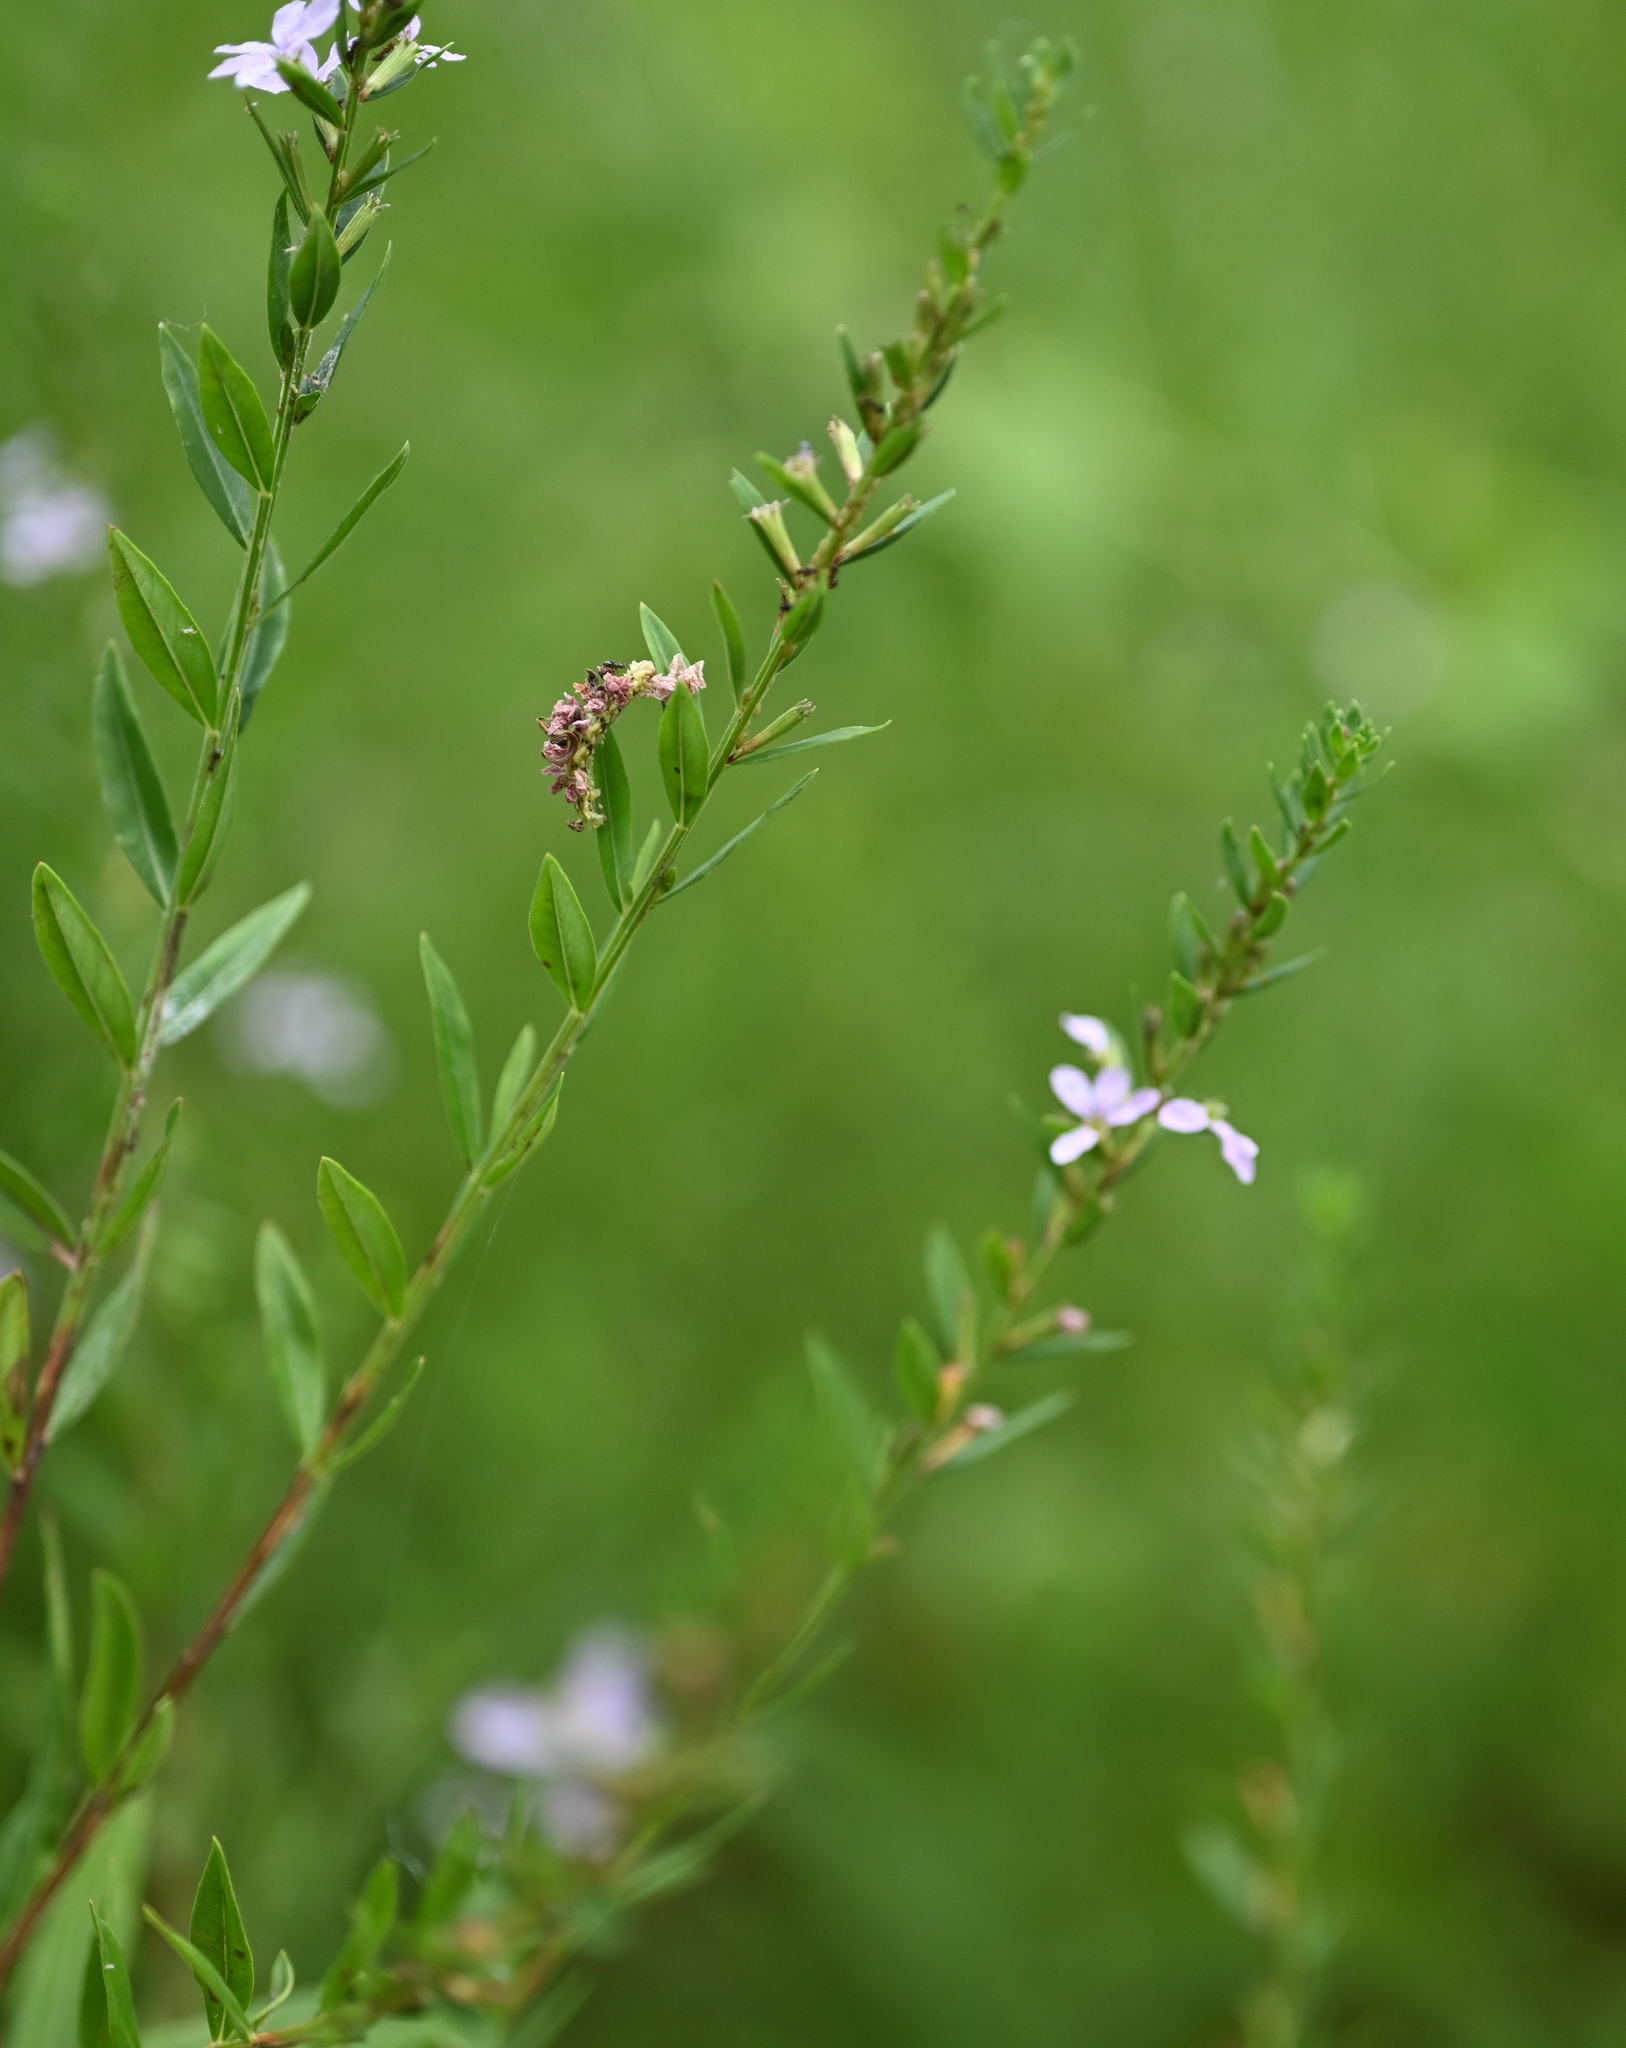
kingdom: Animalia
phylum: Arthropoda
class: Insecta
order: Lepidoptera
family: Geometridae
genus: Synchlora
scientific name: Synchlora
